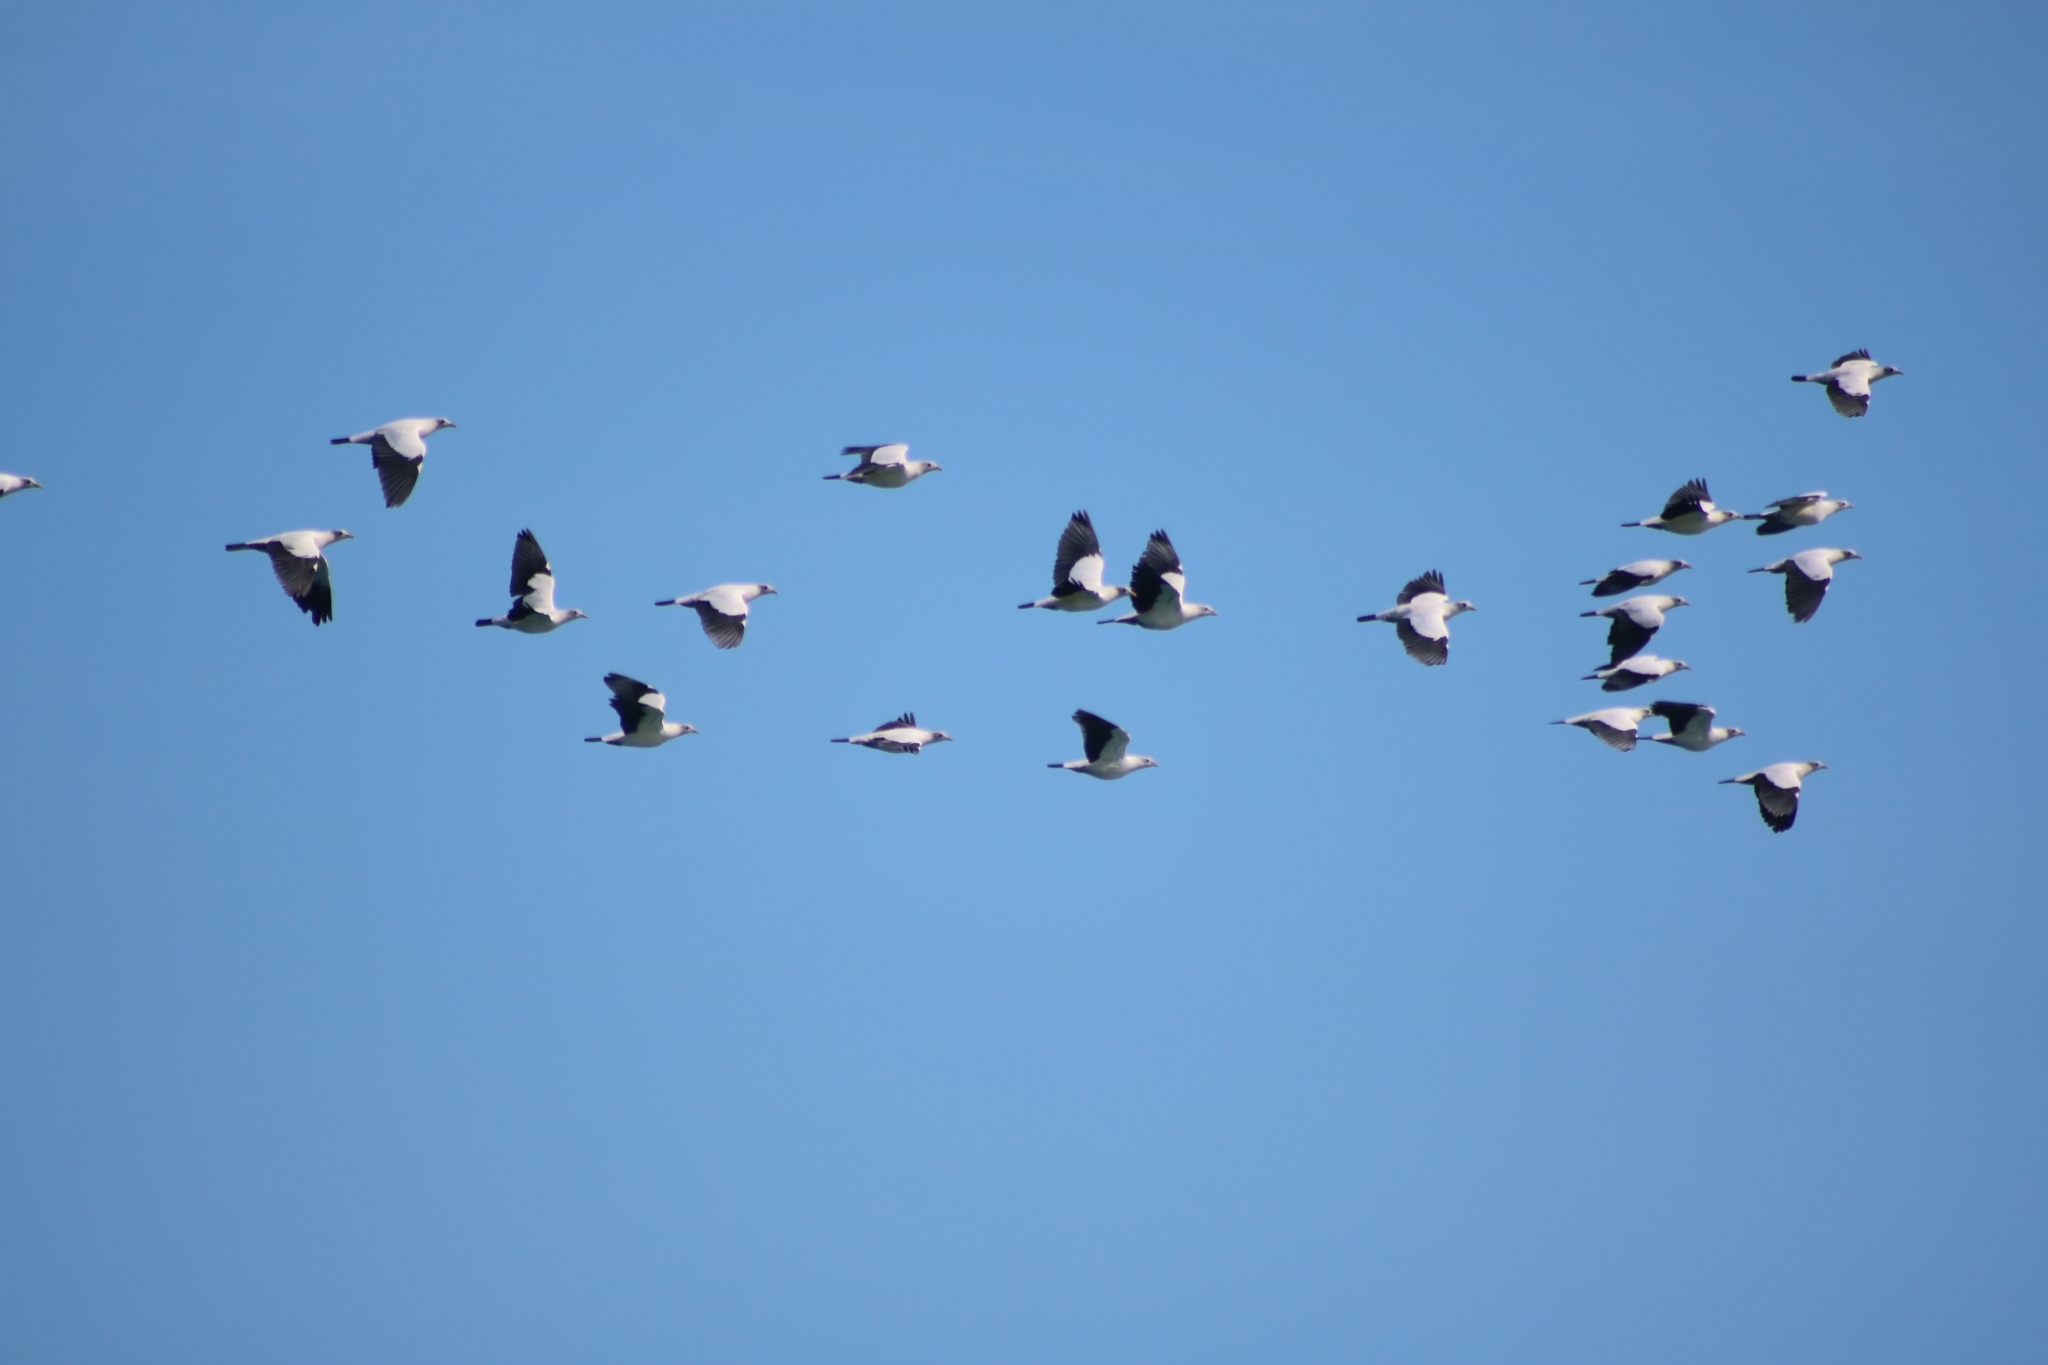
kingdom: Animalia
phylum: Chordata
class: Aves
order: Columbiformes
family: Columbidae
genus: Ducula
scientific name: Ducula spilorrhoa
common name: Torresian imperial pigeon
